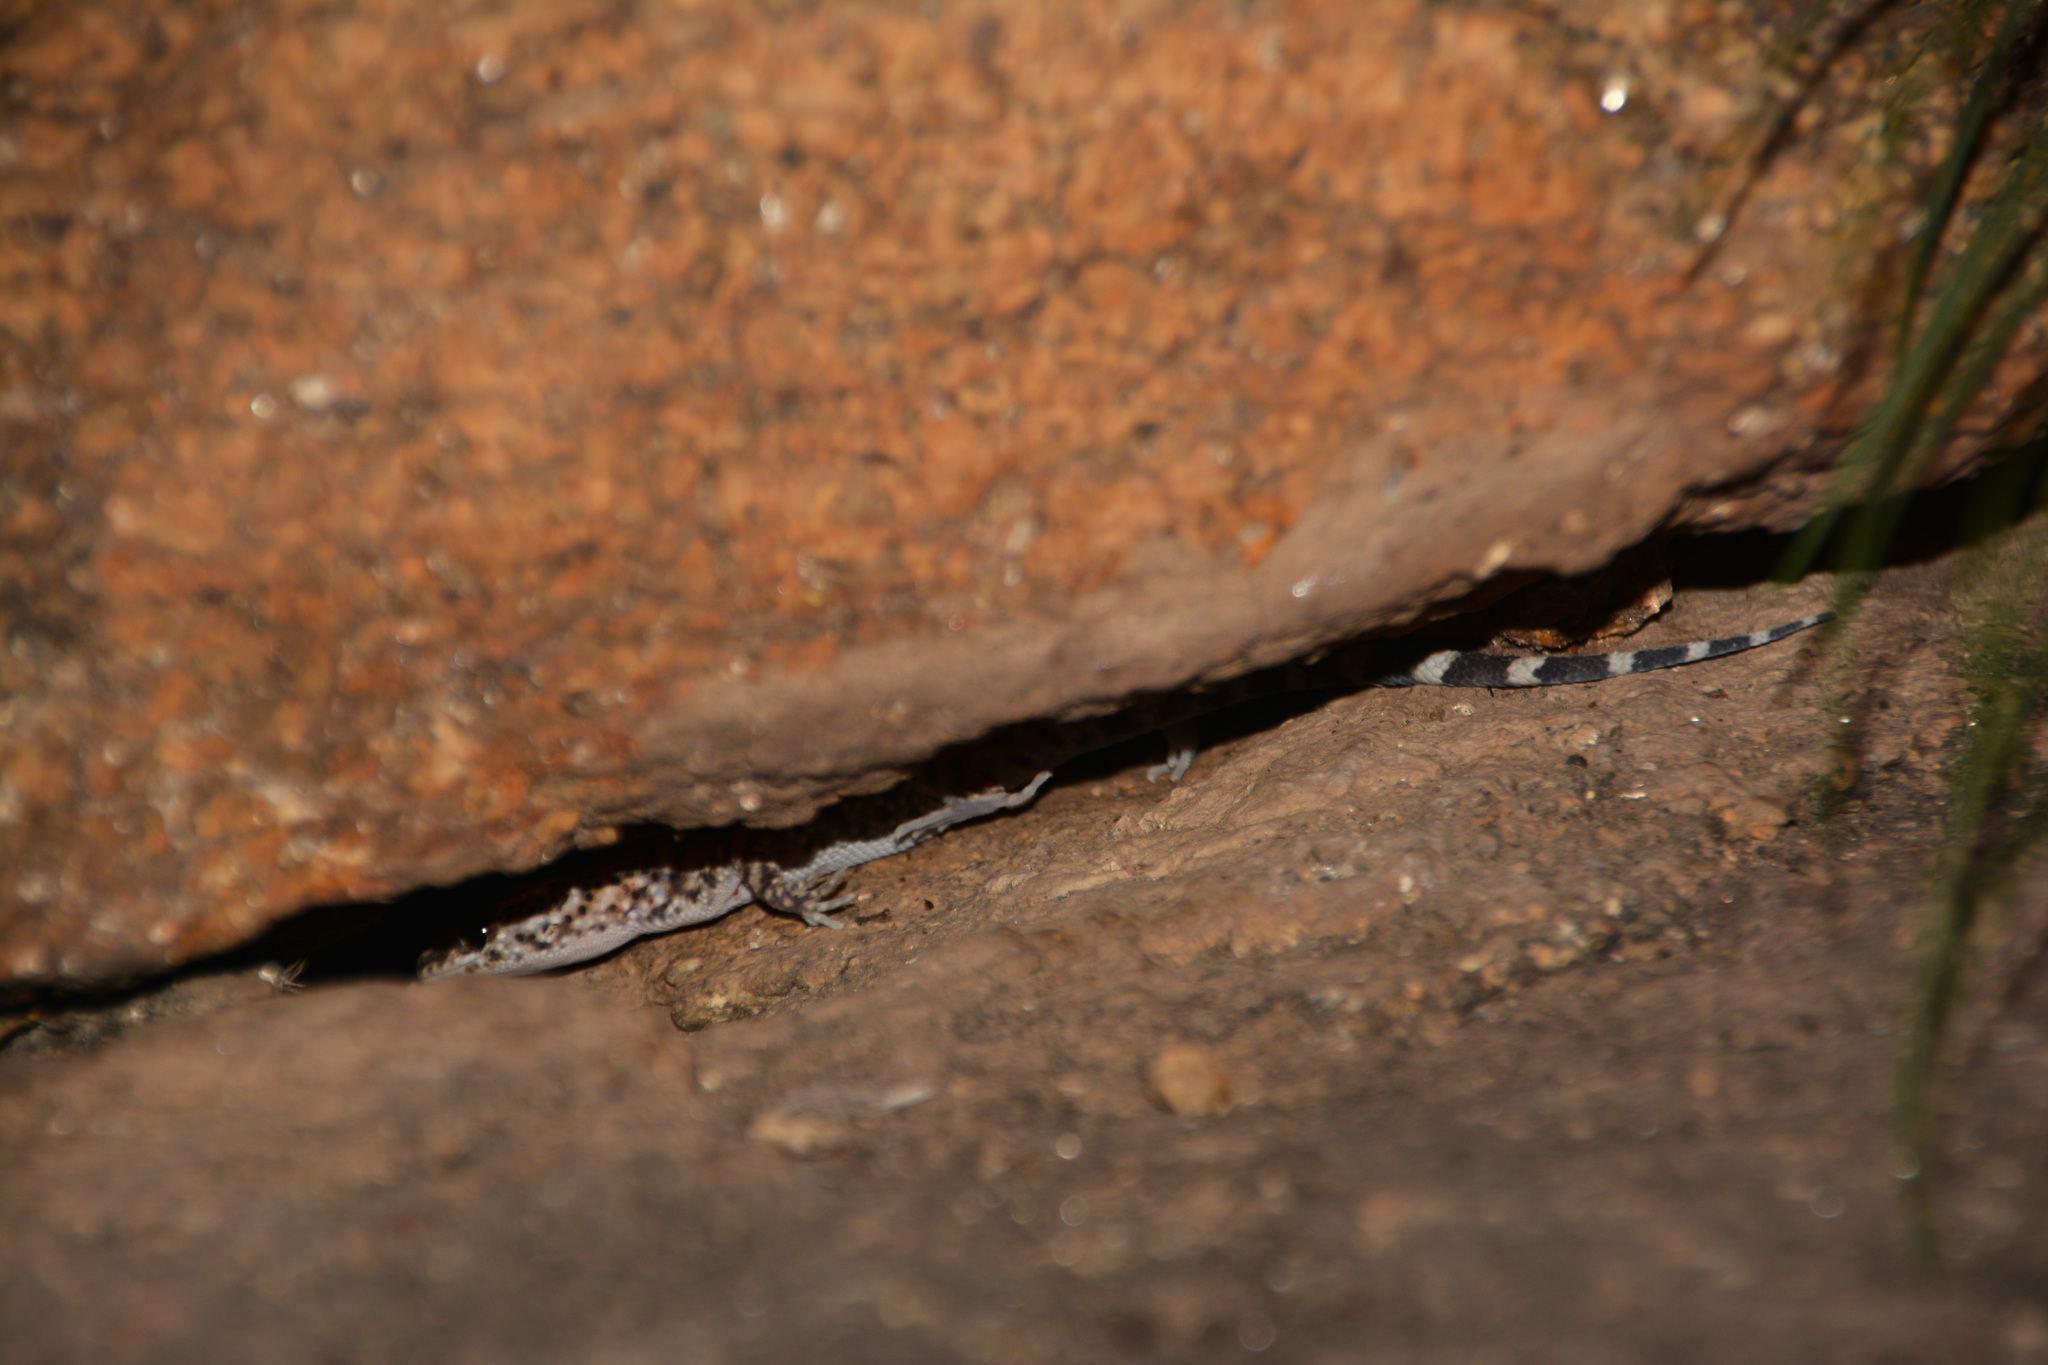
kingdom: Animalia
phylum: Chordata
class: Squamata
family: Phyllodactylidae
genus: Homonota
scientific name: Homonota horrida
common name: South american marked gecko
